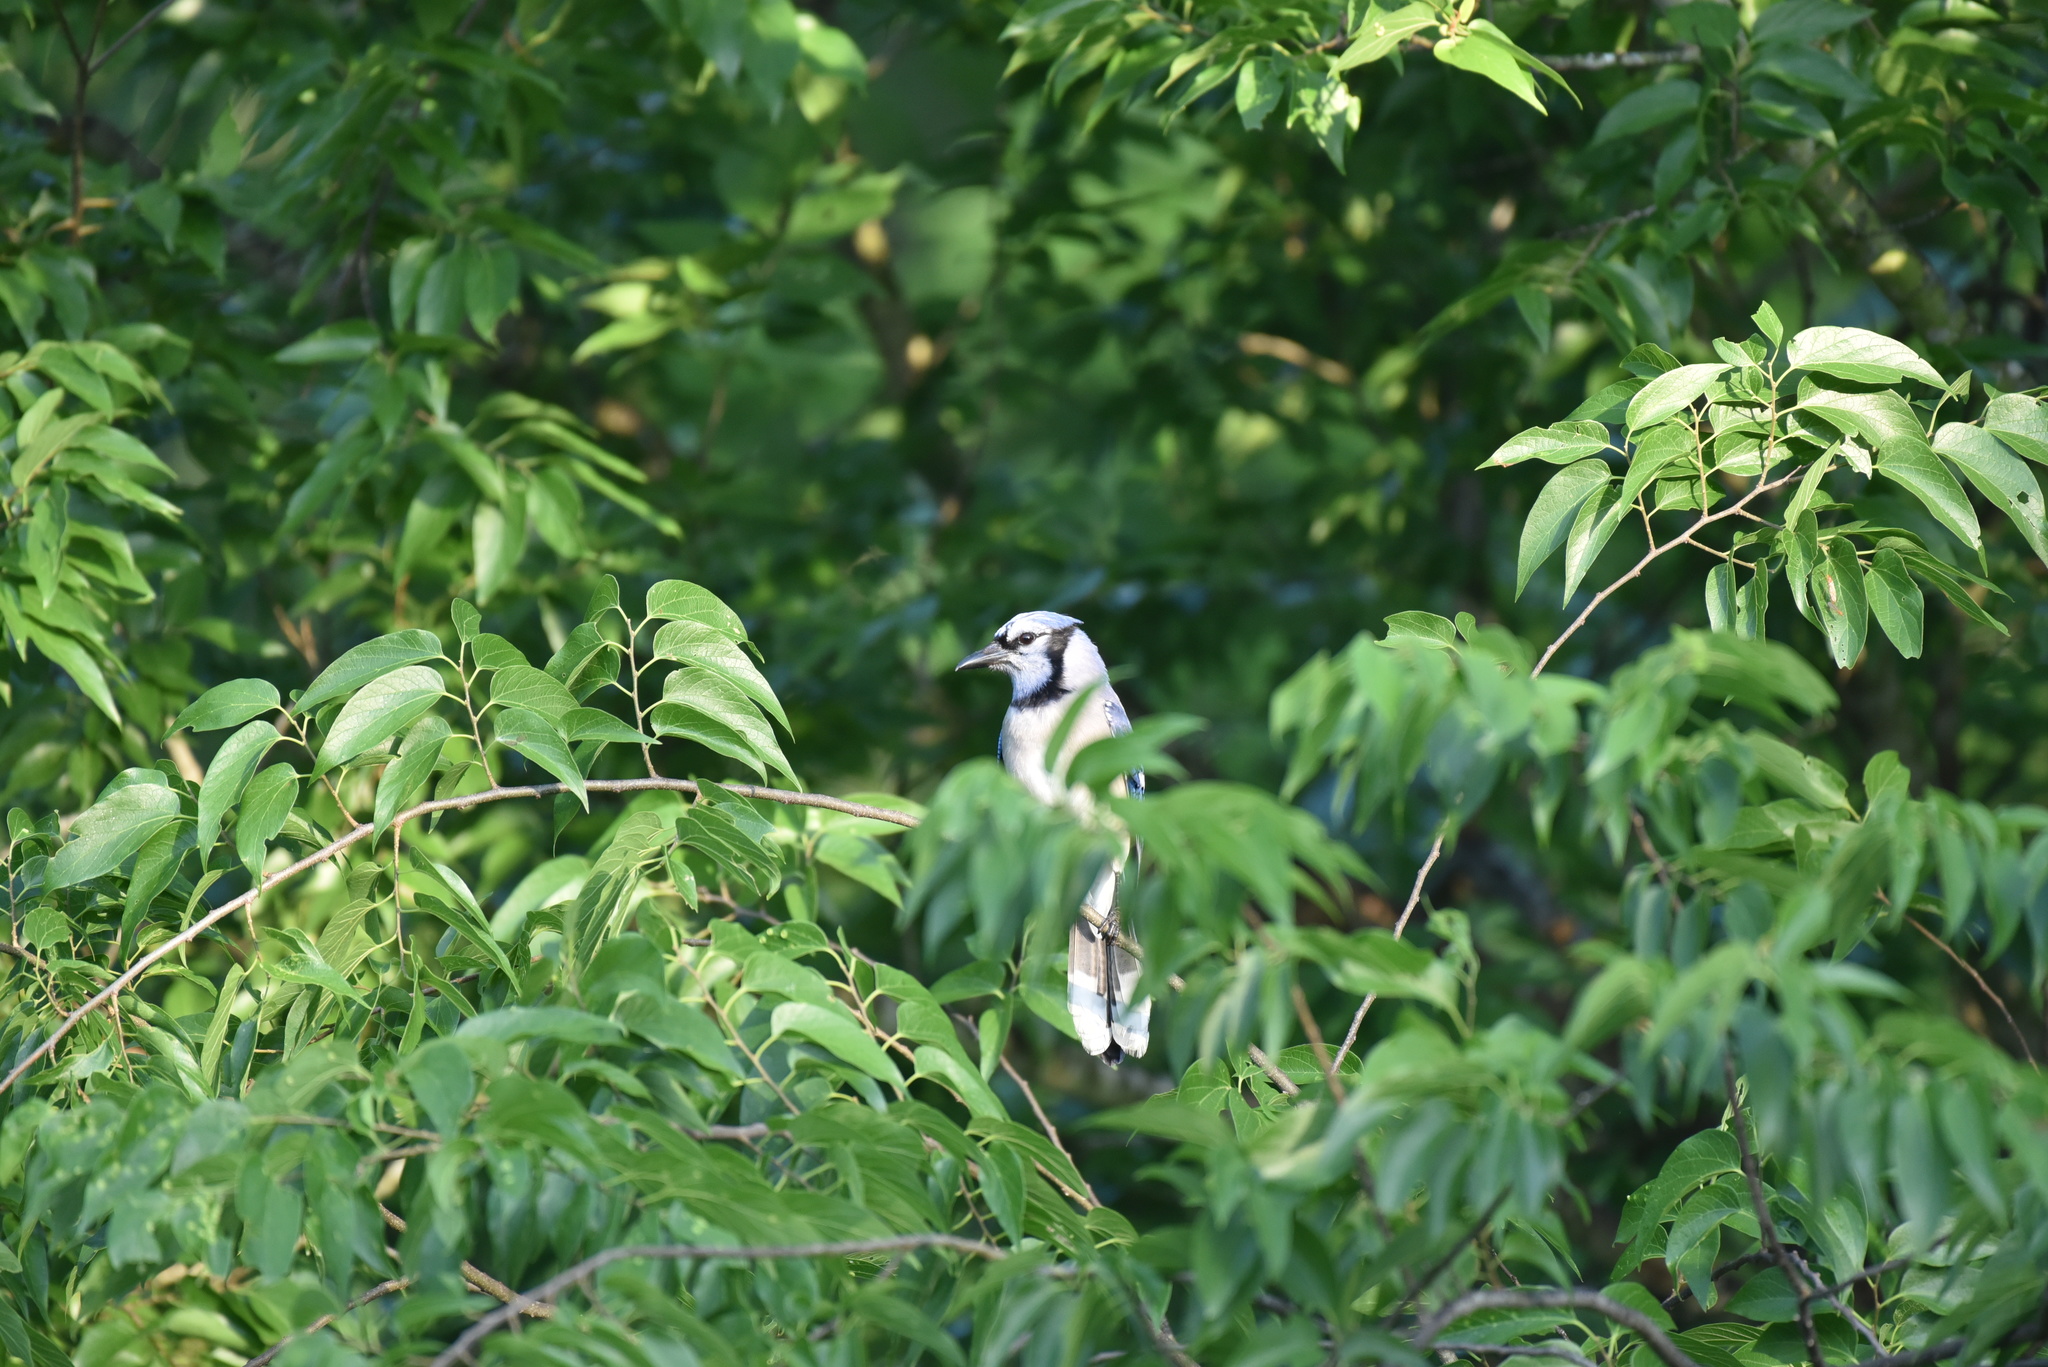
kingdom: Animalia
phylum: Chordata
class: Aves
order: Passeriformes
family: Corvidae
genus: Cyanocitta
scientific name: Cyanocitta cristata
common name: Blue jay
